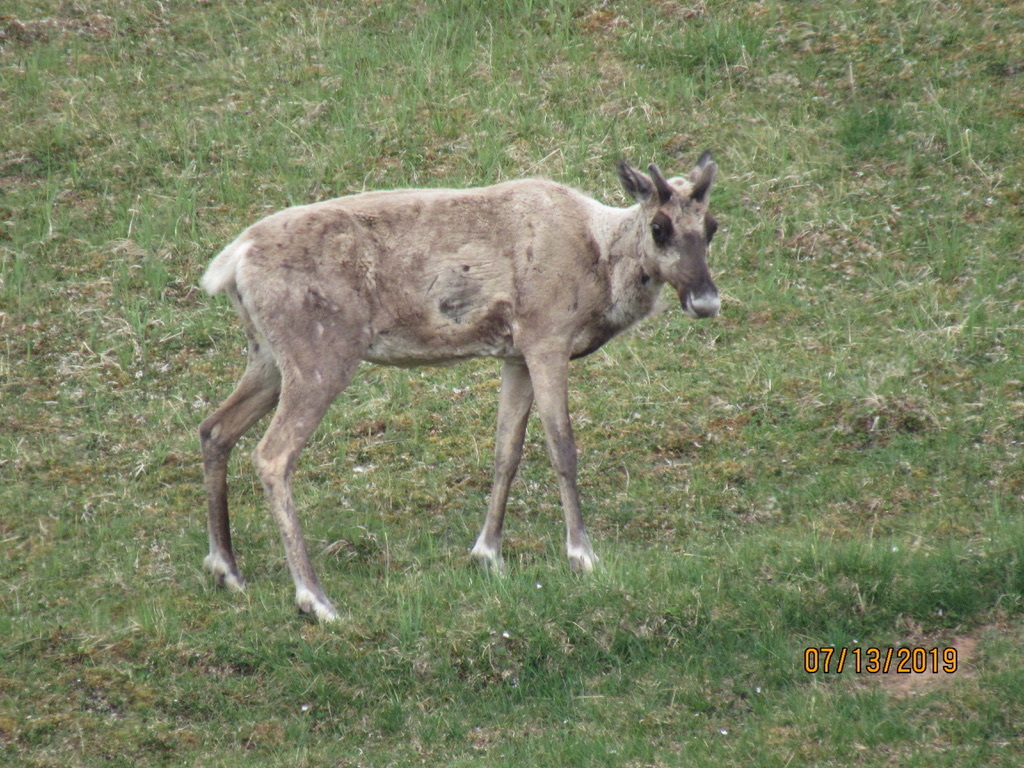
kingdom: Animalia
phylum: Chordata
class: Mammalia
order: Artiodactyla
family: Cervidae
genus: Rangifer
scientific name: Rangifer tarandus
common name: Reindeer
